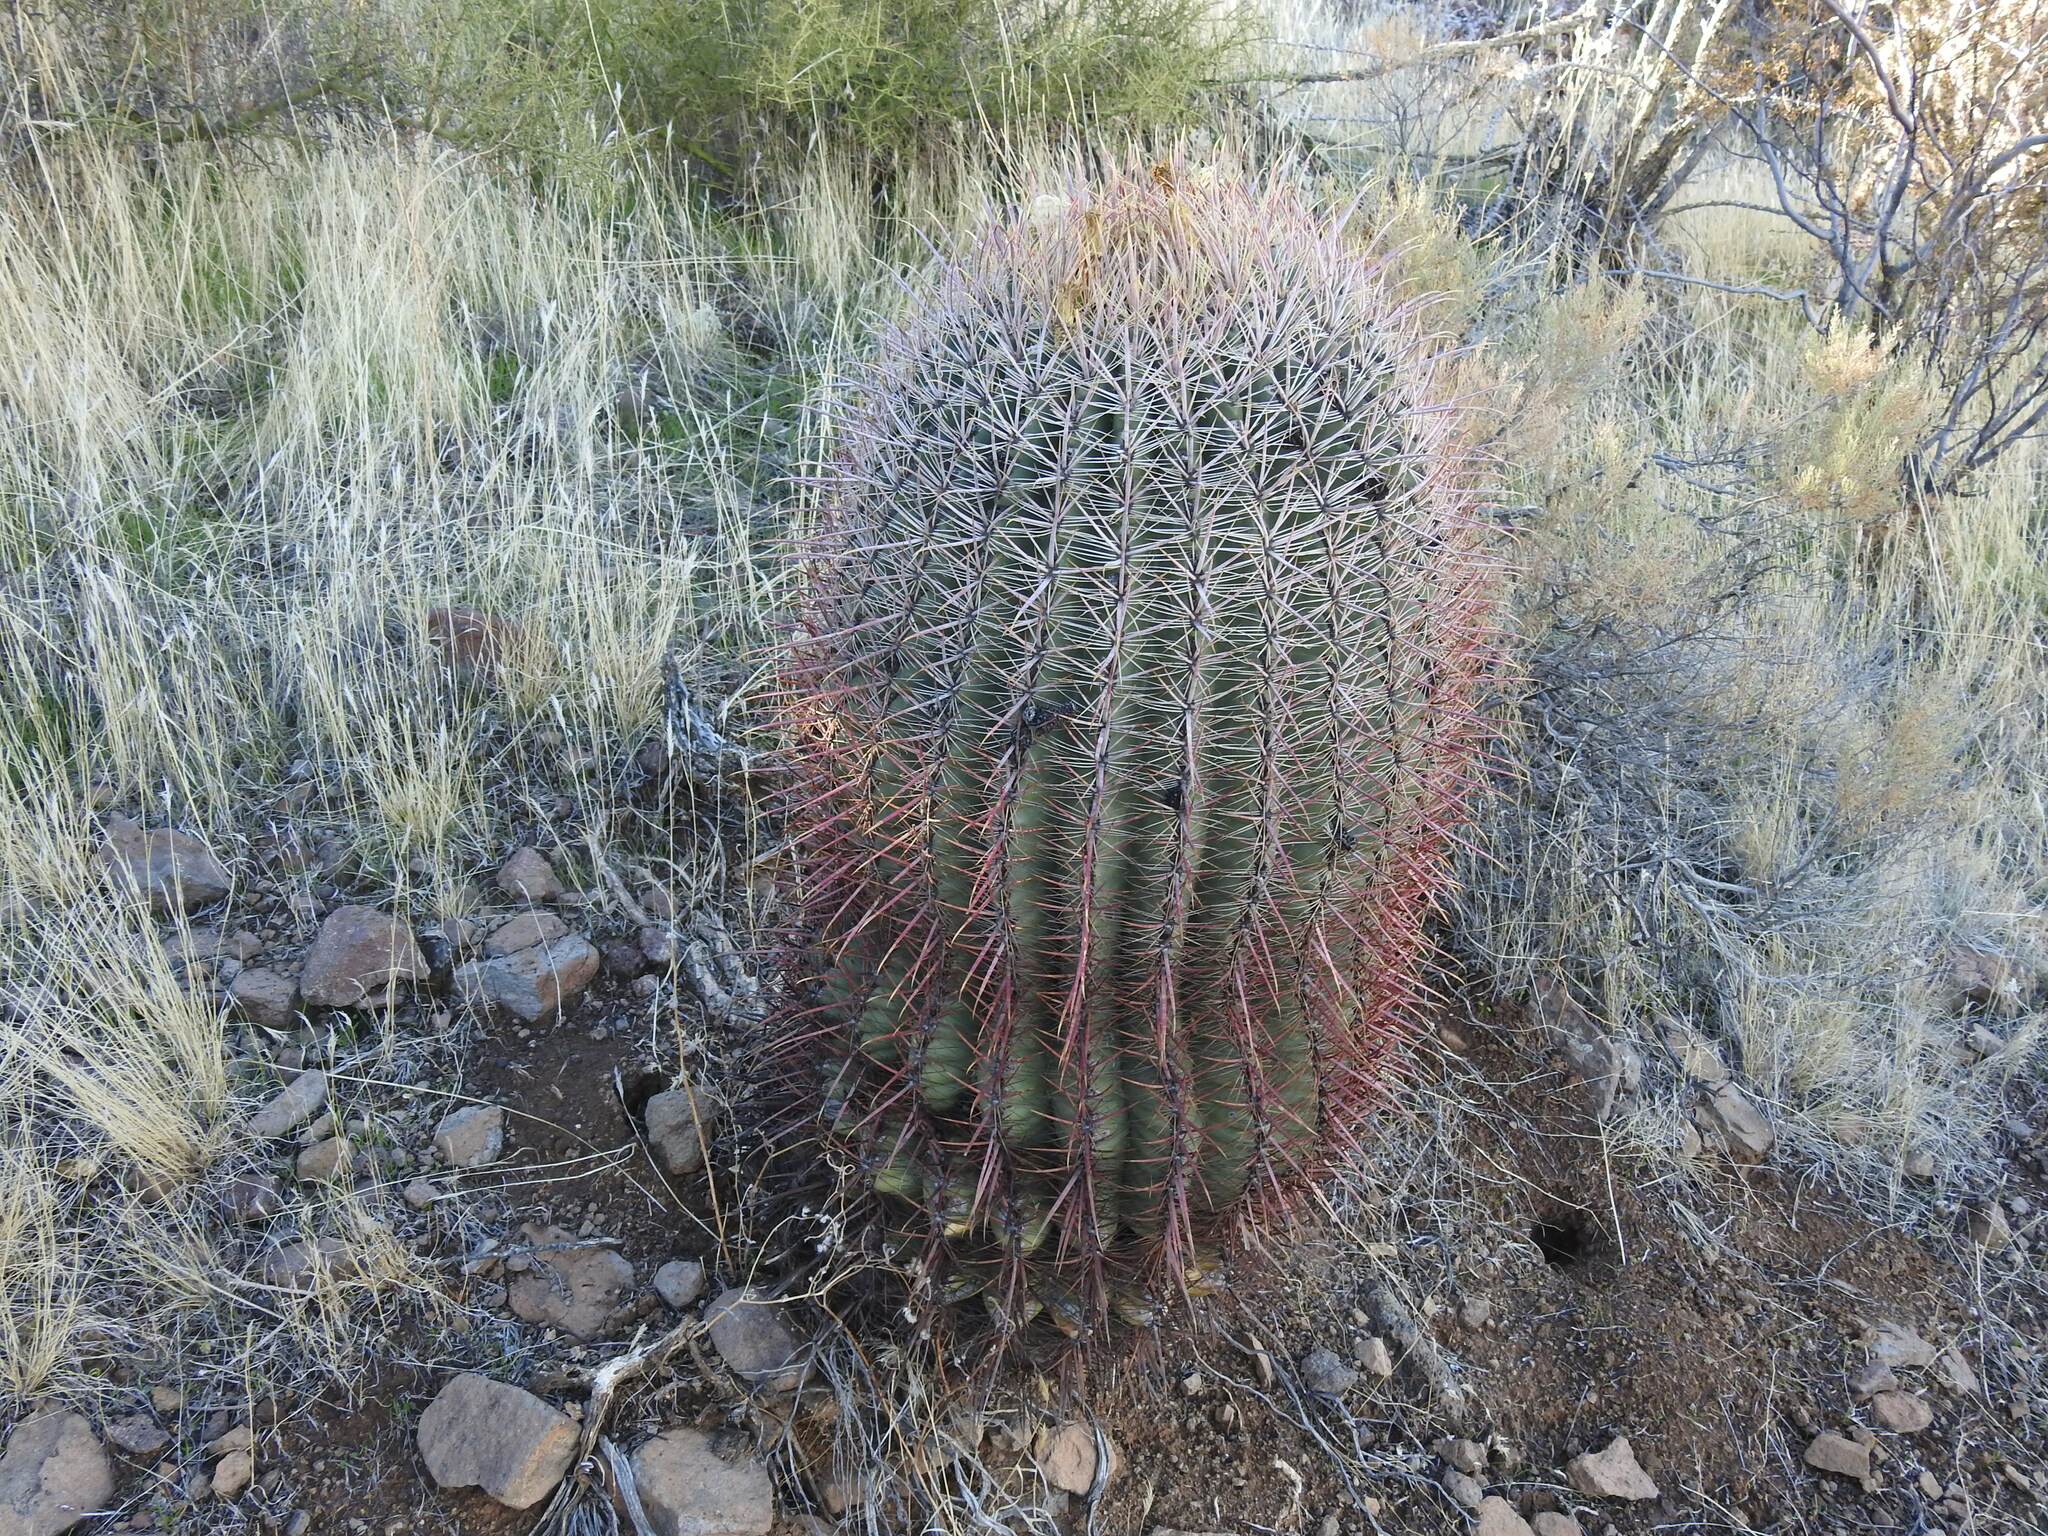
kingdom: Plantae
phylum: Tracheophyta
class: Magnoliopsida
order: Caryophyllales
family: Cactaceae
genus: Ferocactus
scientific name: Ferocactus cylindraceus
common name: California barrel cactus
